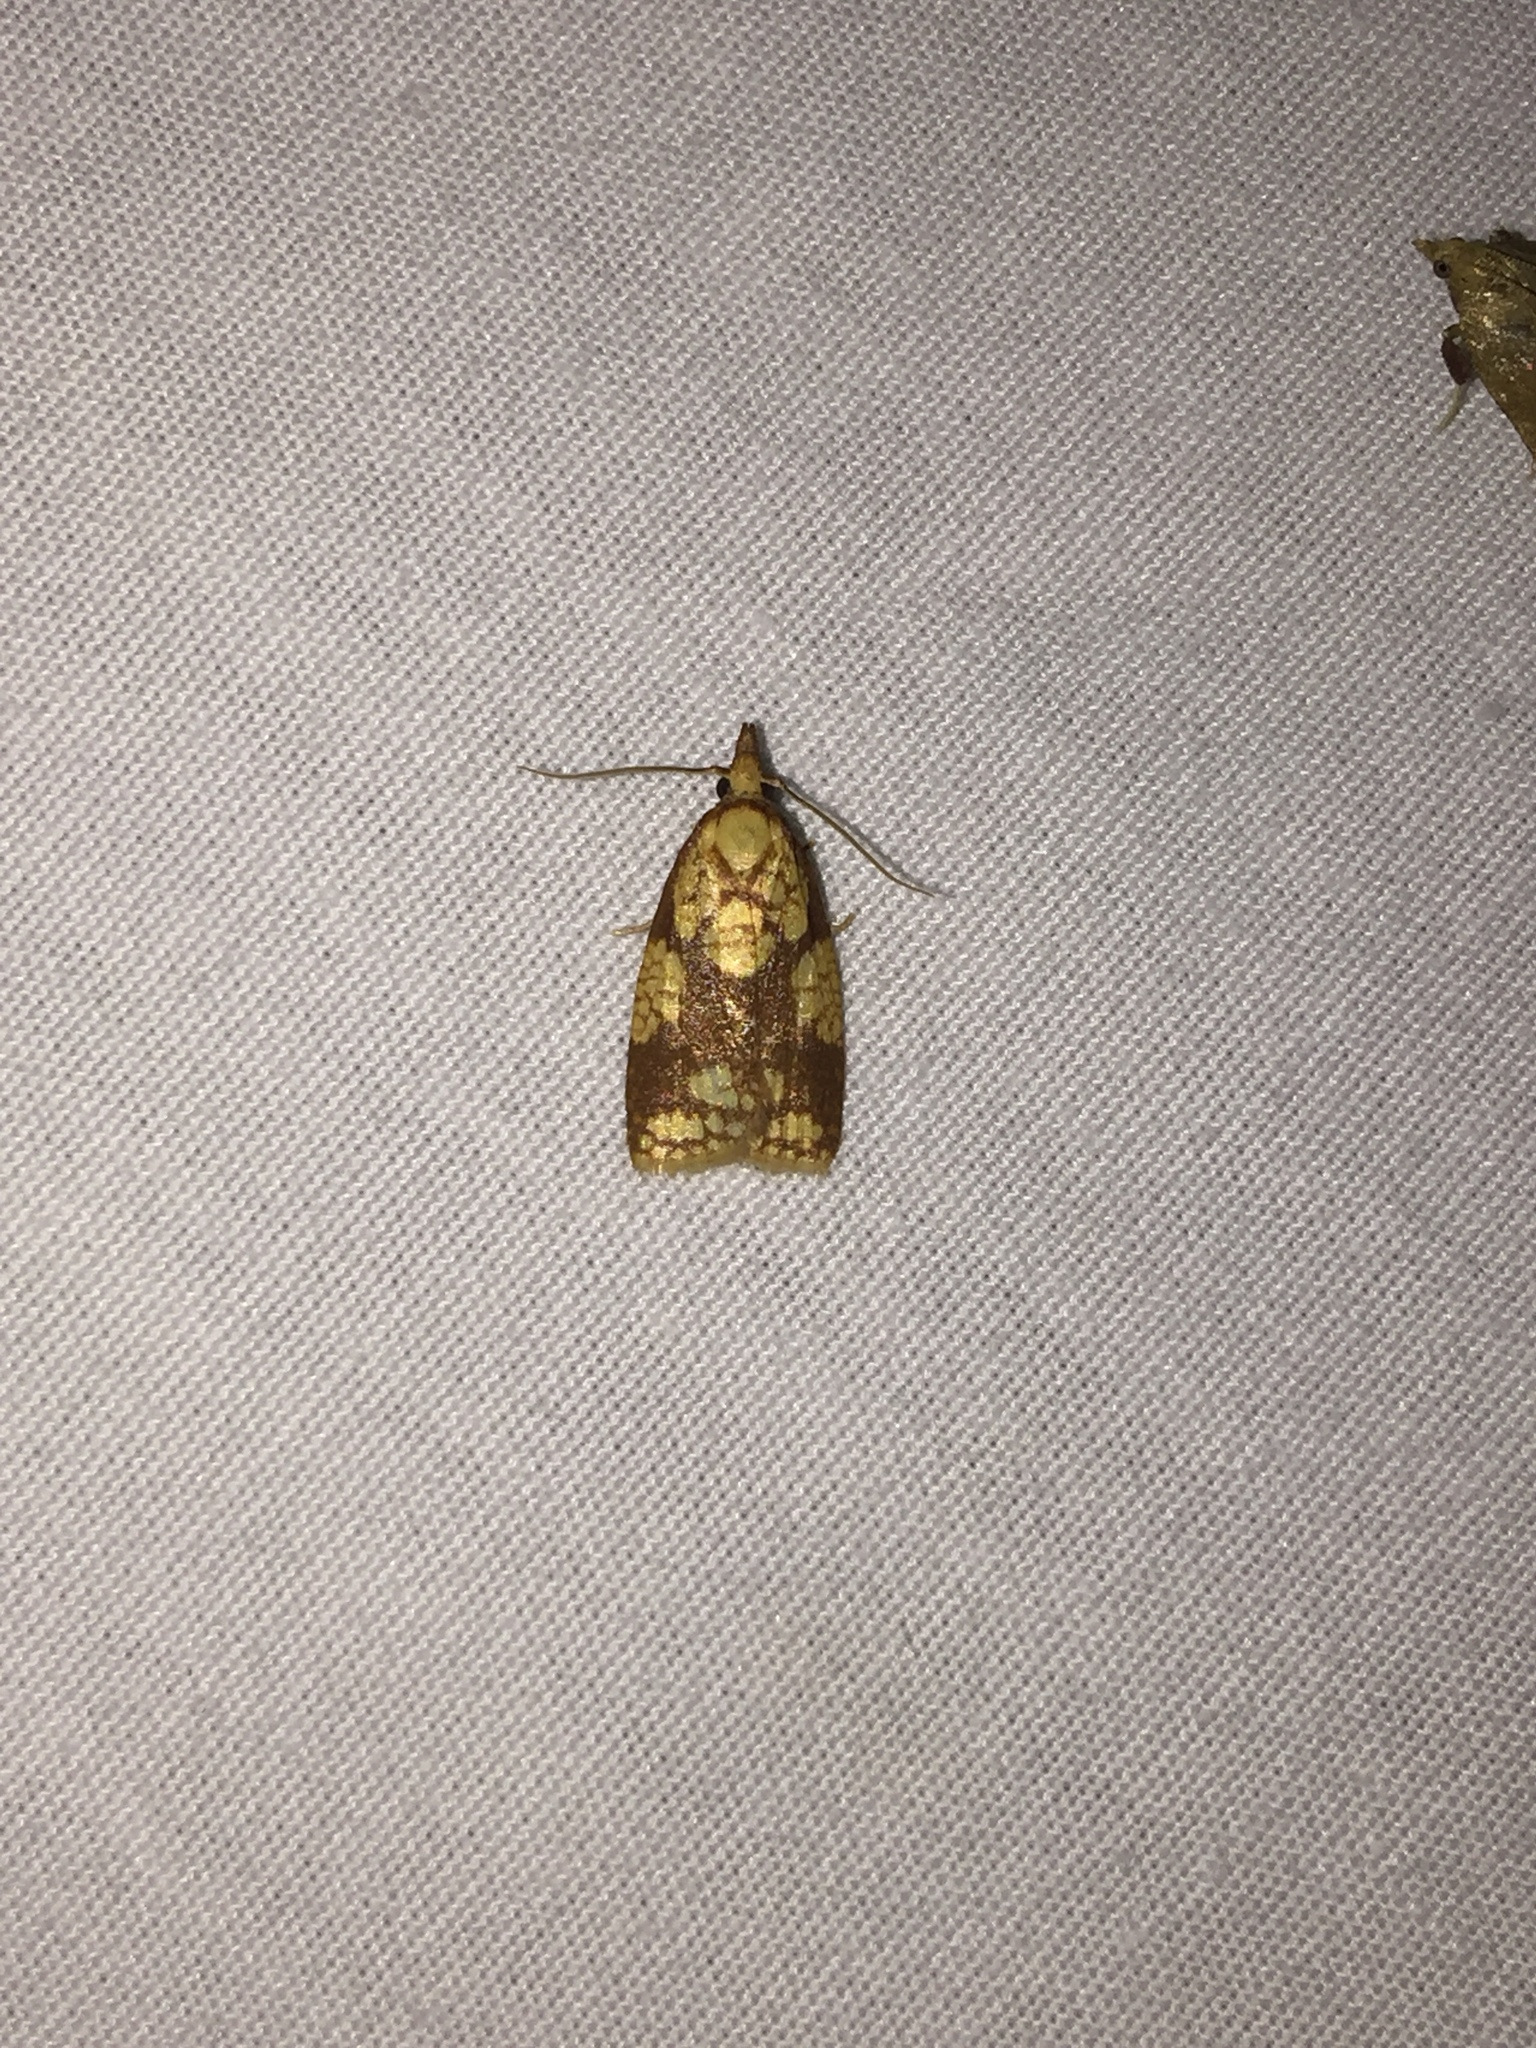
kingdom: Animalia
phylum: Arthropoda
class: Insecta
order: Lepidoptera
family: Tortricidae
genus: Cenopis
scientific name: Cenopis ferreana
